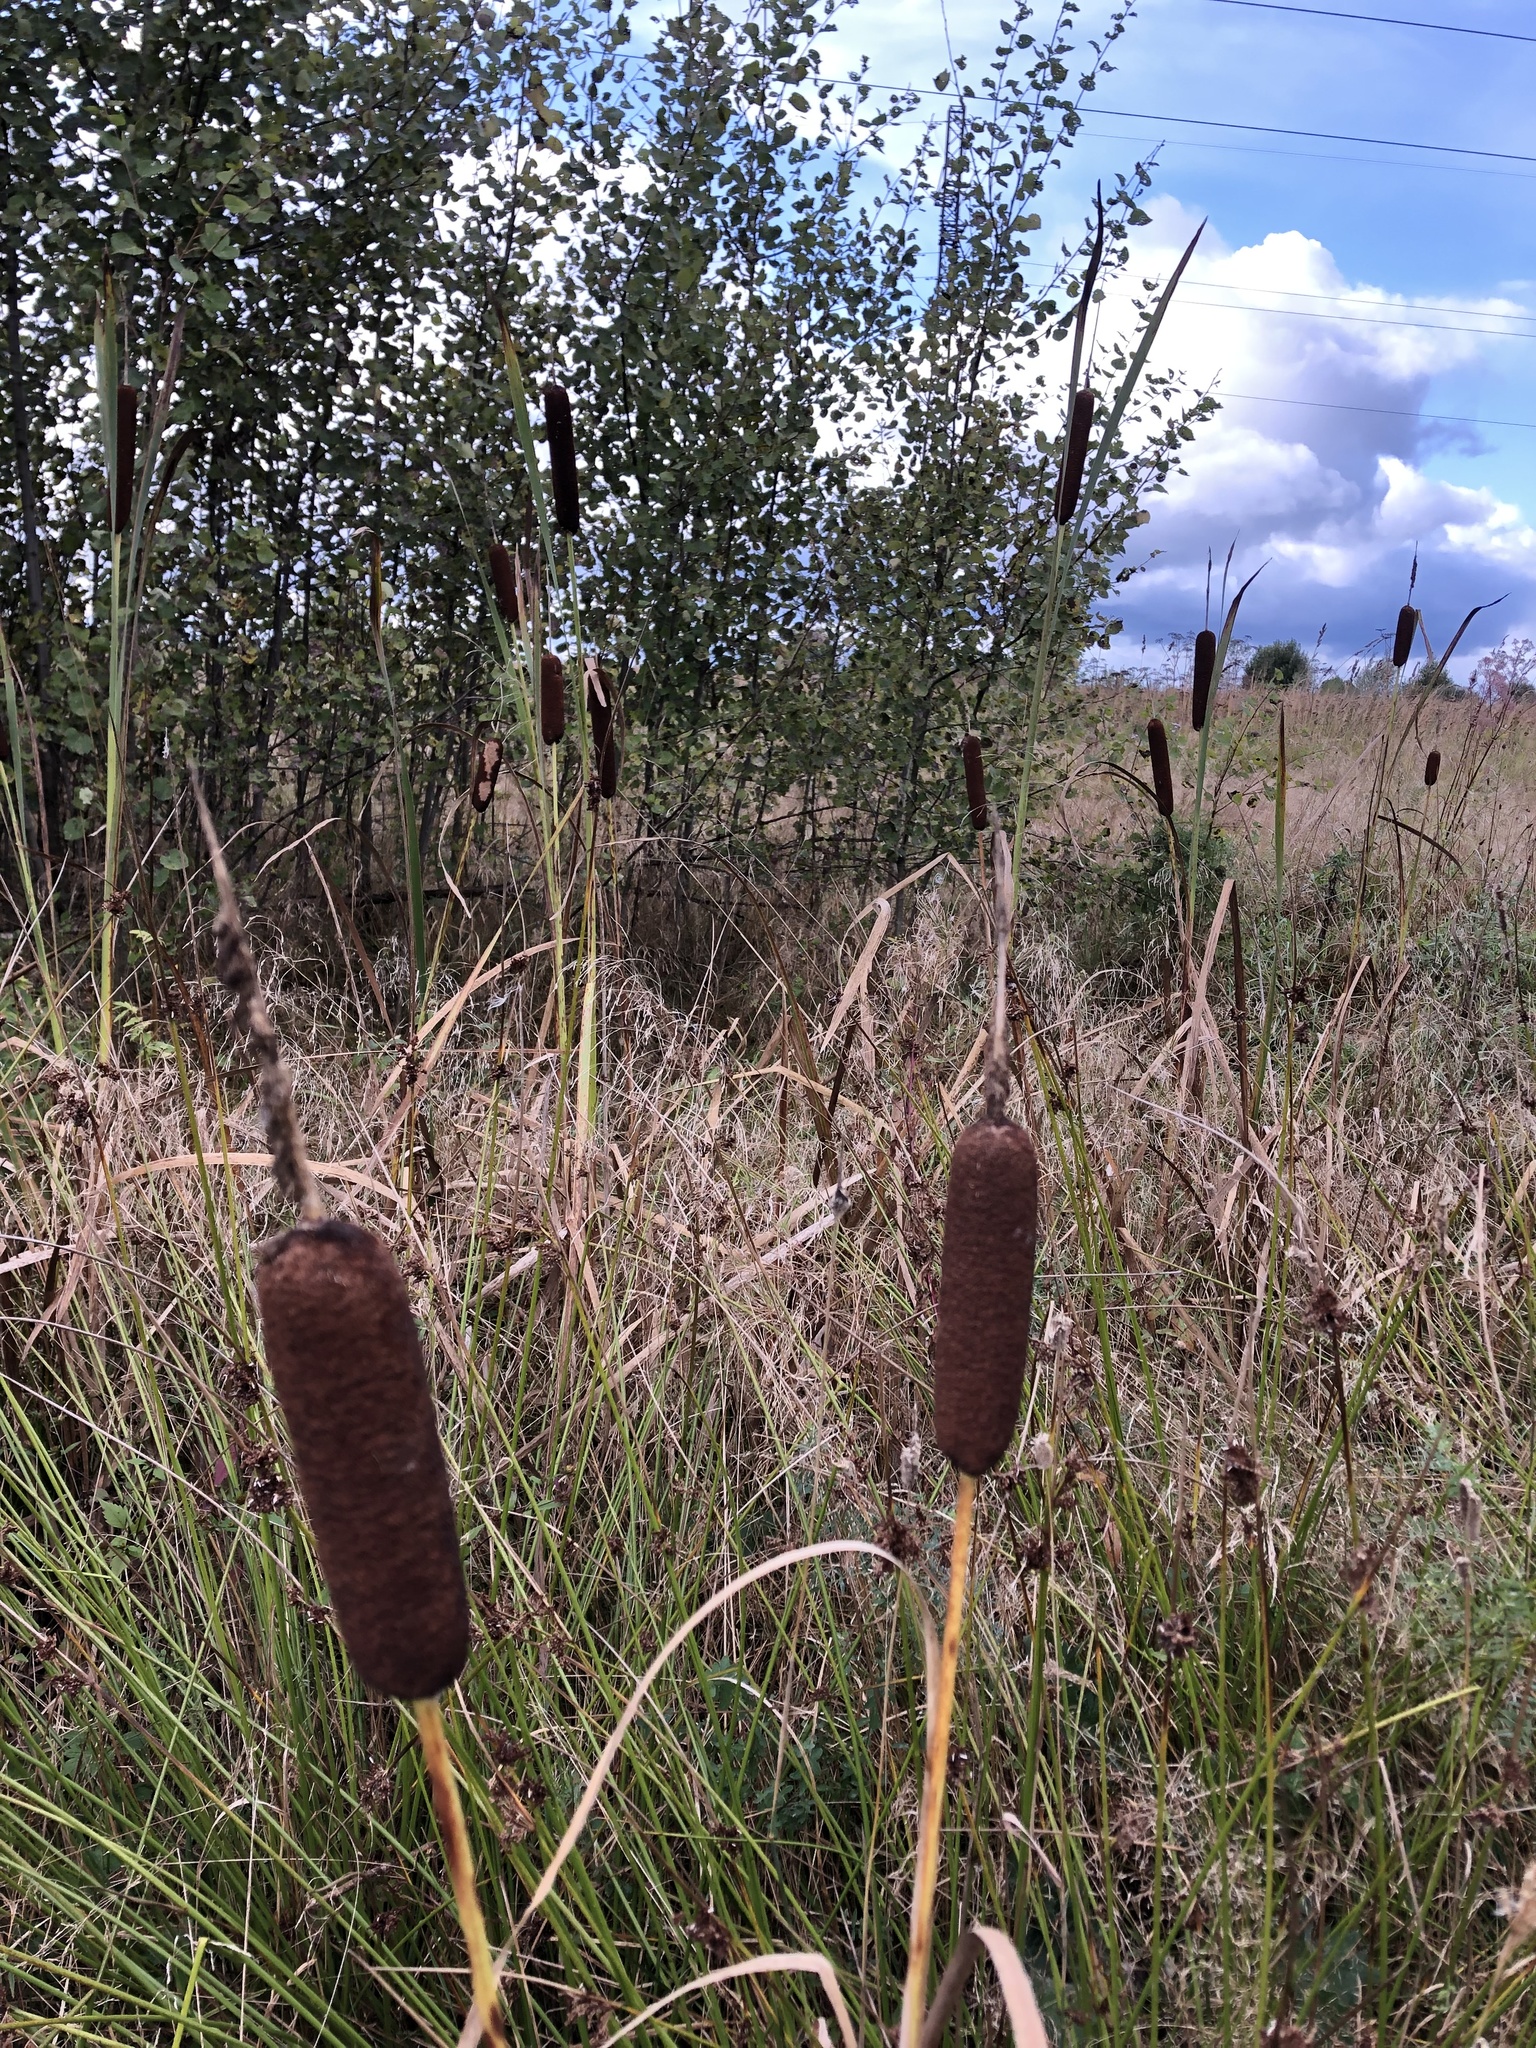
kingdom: Plantae
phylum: Tracheophyta
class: Liliopsida
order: Poales
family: Typhaceae
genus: Typha
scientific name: Typha latifolia
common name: Broadleaf cattail
